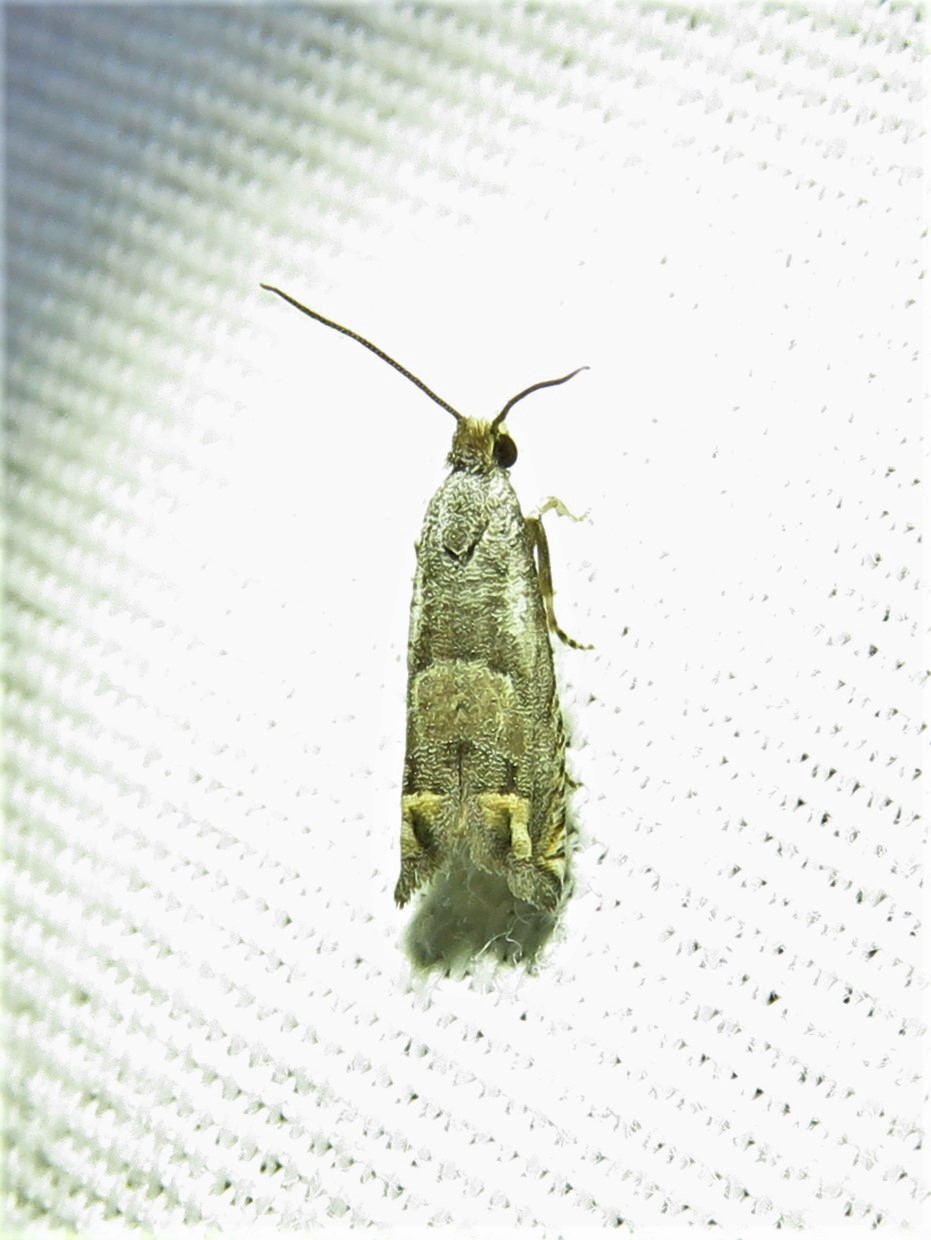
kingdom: Animalia
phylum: Arthropoda
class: Insecta
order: Lepidoptera
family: Tortricidae
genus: Epiblema
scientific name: Epiblema strenuana
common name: Ragweed borer moth
